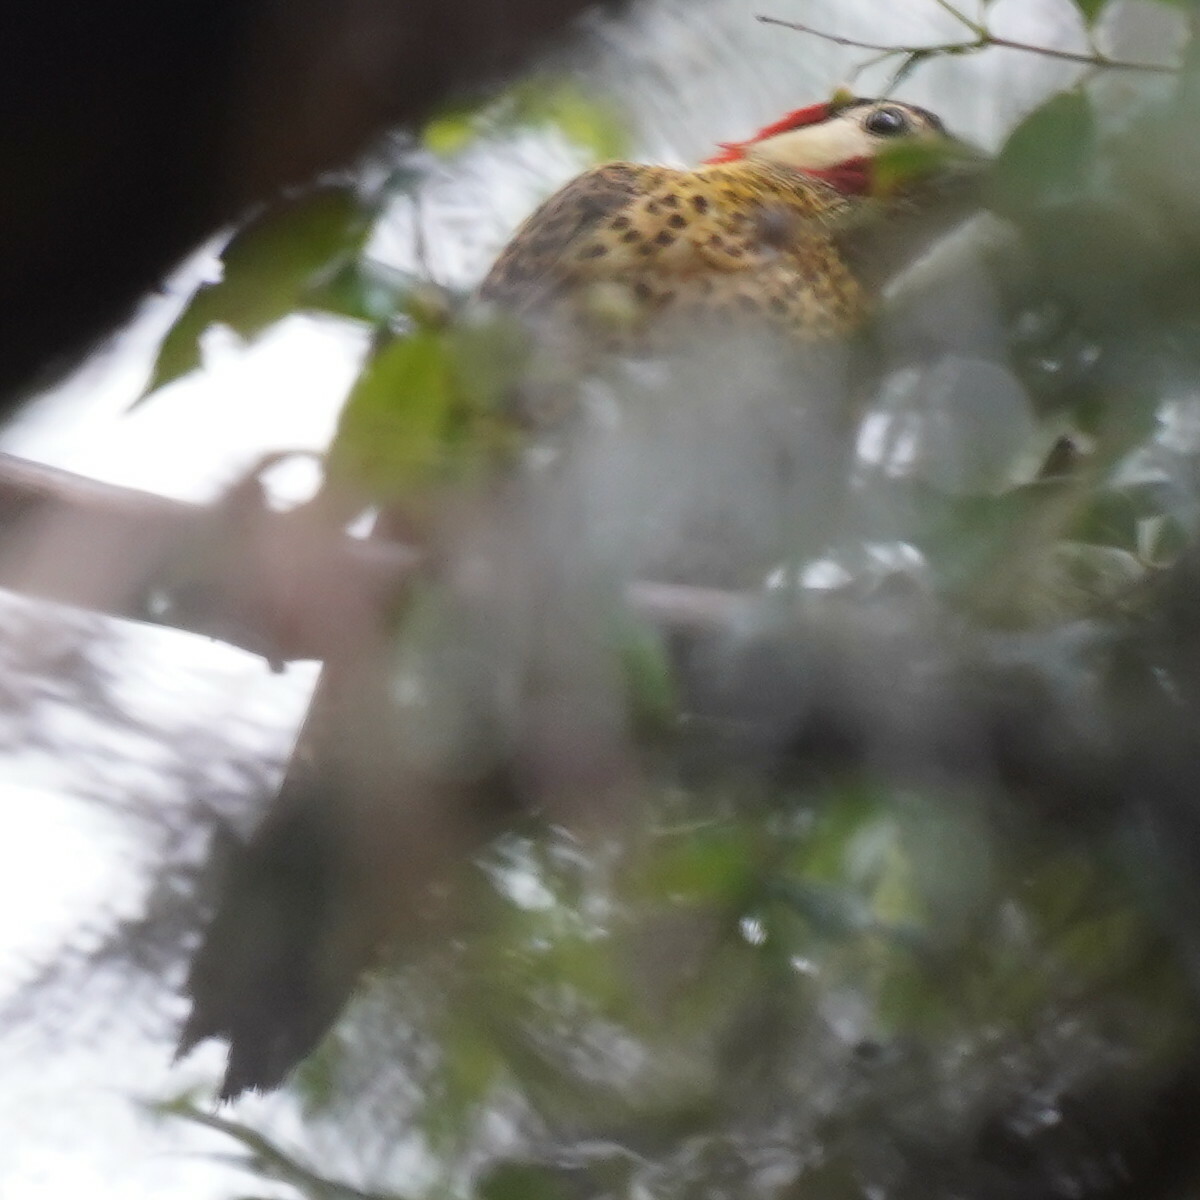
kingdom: Animalia
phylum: Chordata
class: Aves
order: Piciformes
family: Picidae
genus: Colaptes
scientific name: Colaptes melanochloros
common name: Green-barred woodpecker
